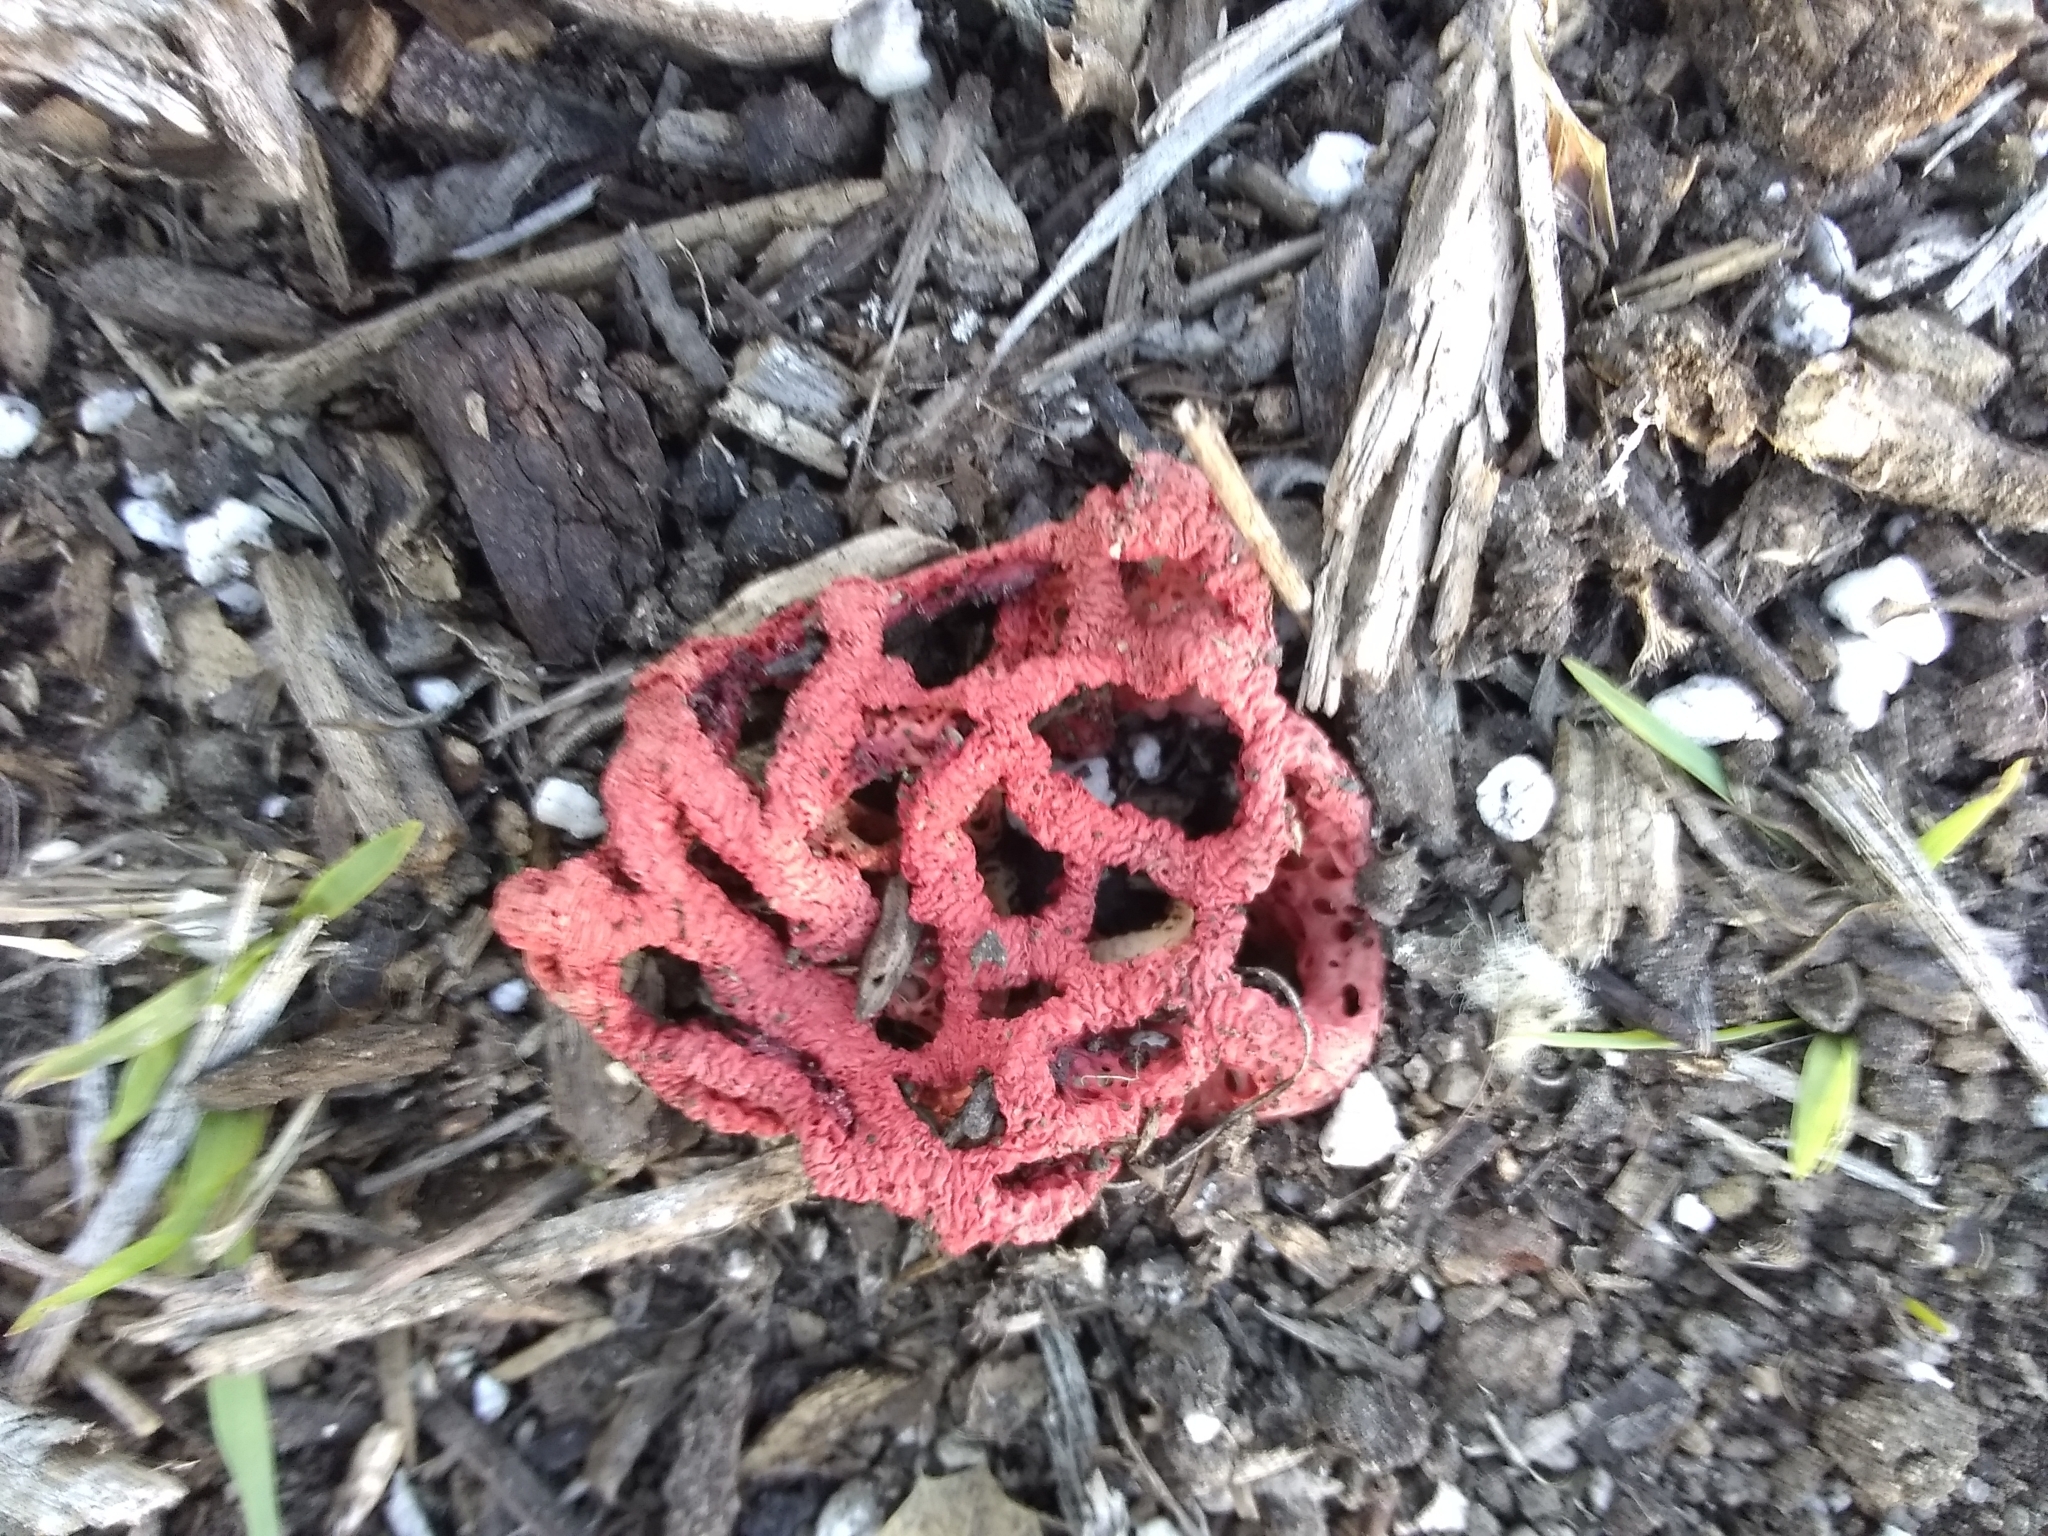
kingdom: Fungi
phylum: Basidiomycota
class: Agaricomycetes
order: Phallales
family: Phallaceae
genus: Clathrus
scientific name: Clathrus ruber
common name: Red cage
